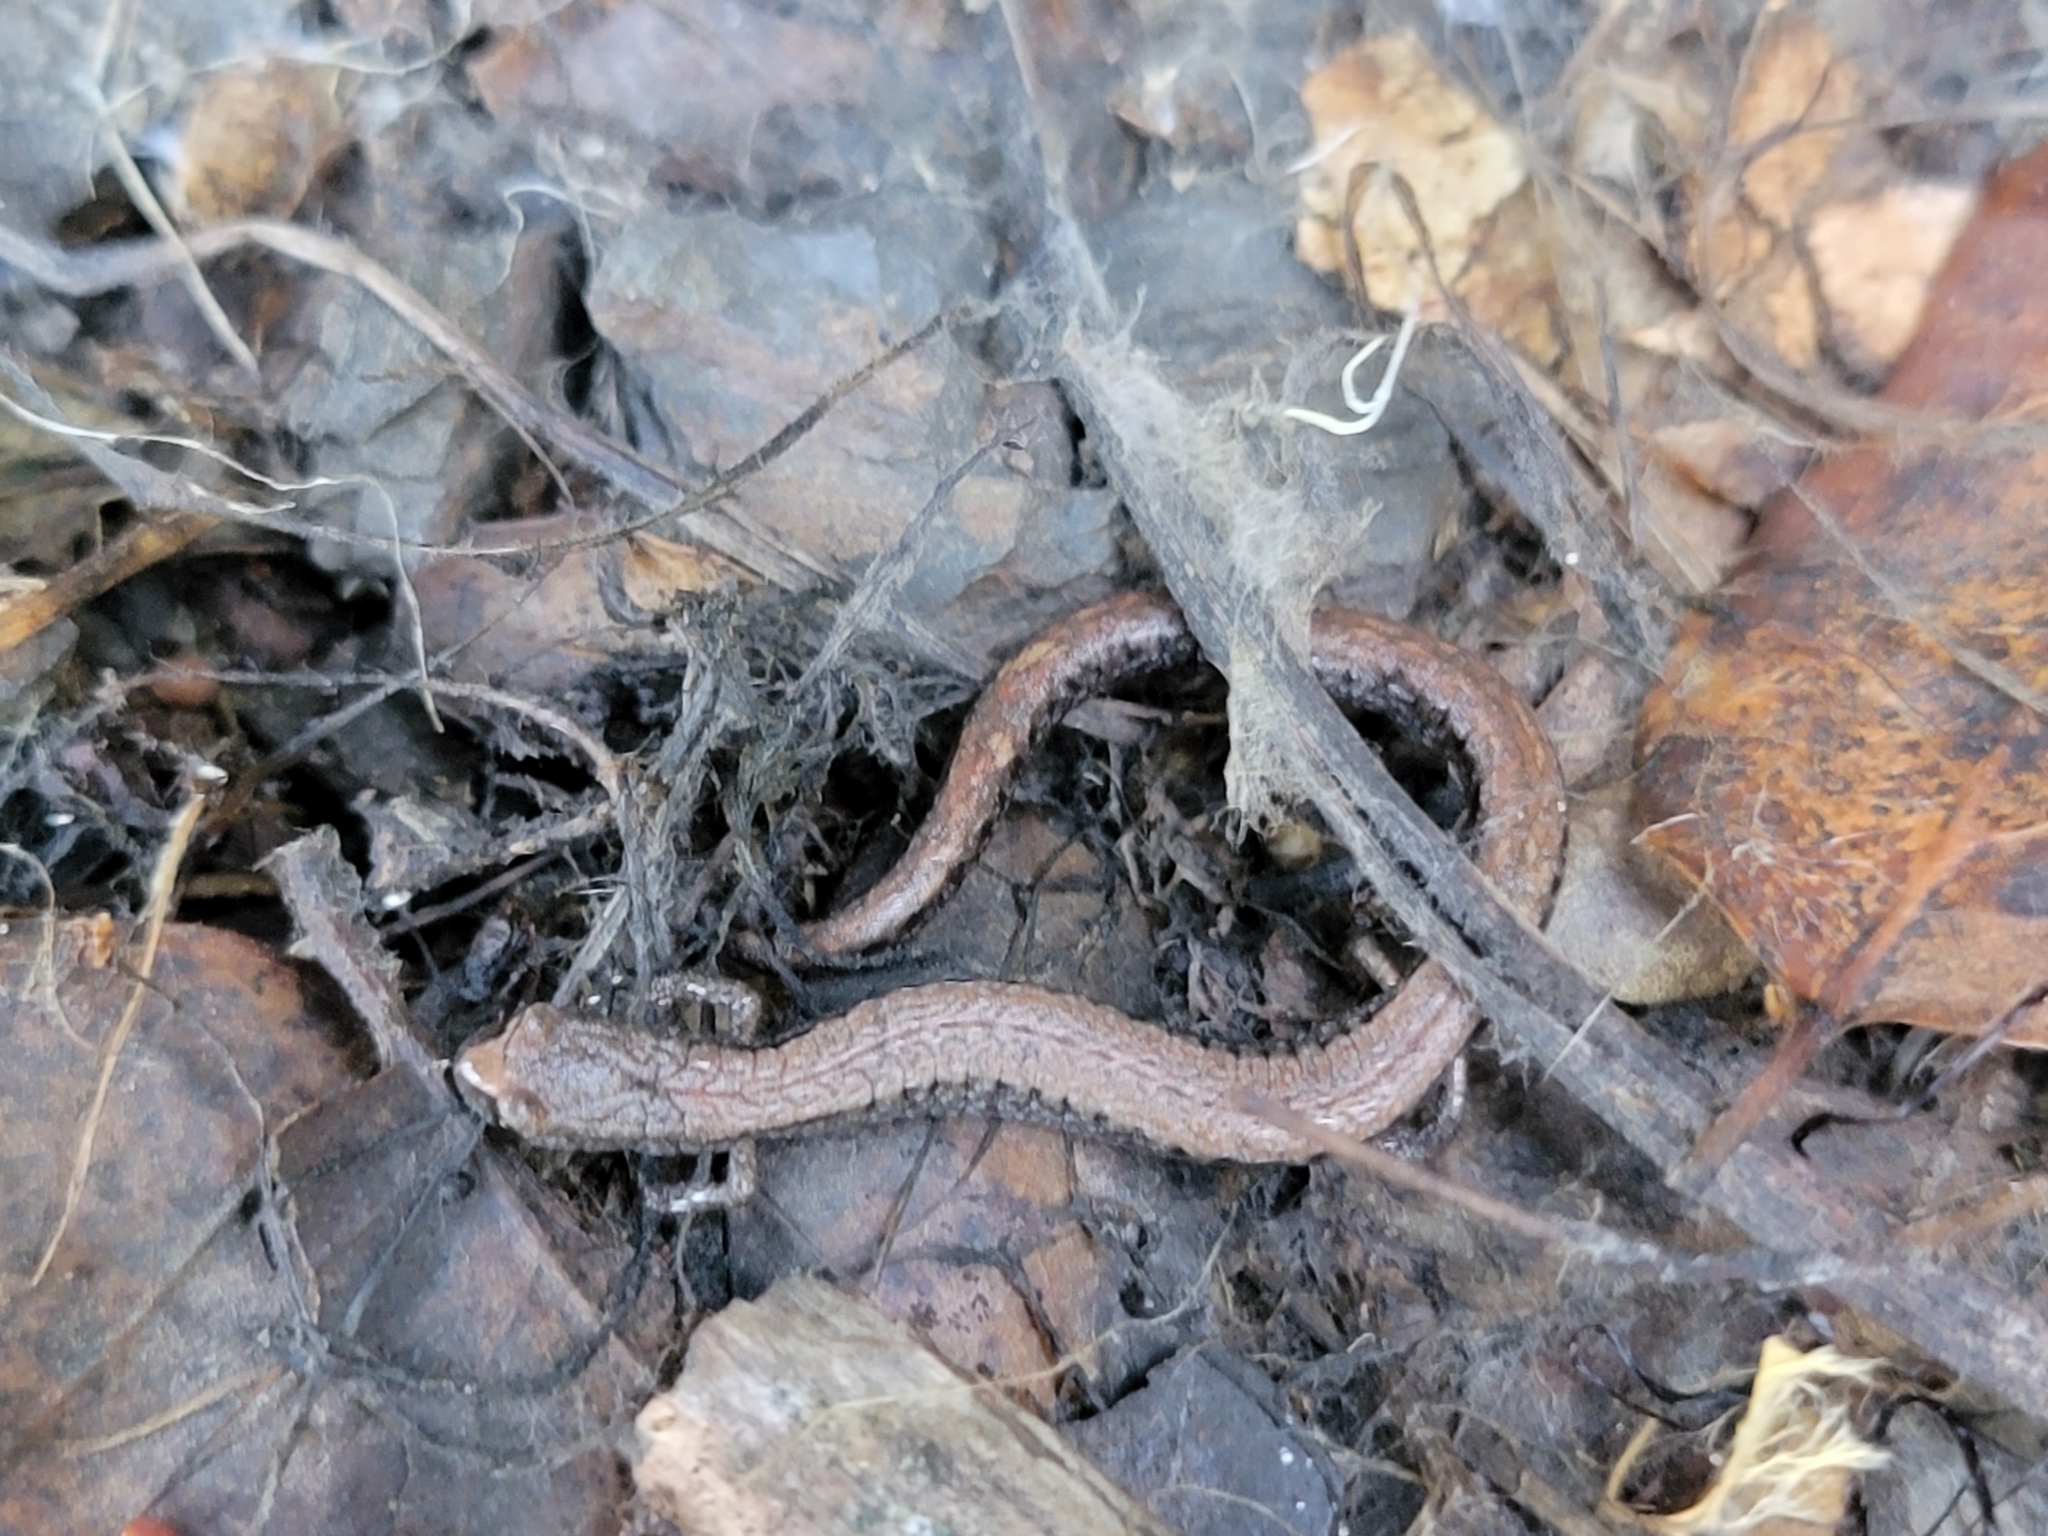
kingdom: Animalia
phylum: Chordata
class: Amphibia
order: Caudata
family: Plethodontidae
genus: Batrachoseps
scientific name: Batrachoseps attenuatus
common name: California slender salamander
